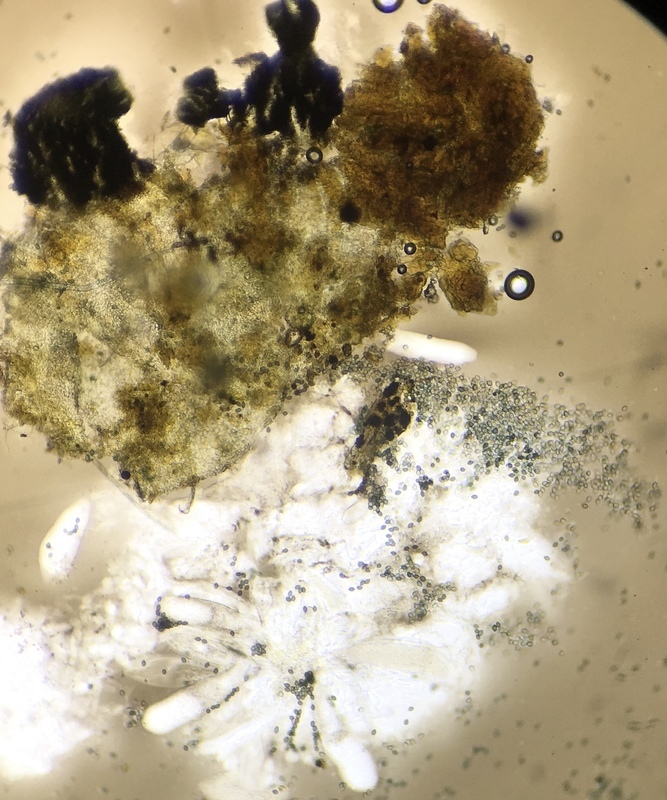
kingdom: Fungi
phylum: Ascomycota
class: Sordariomycetes
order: Sordariales
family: Podosporaceae
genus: Podospora
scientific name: Podospora araneosa
